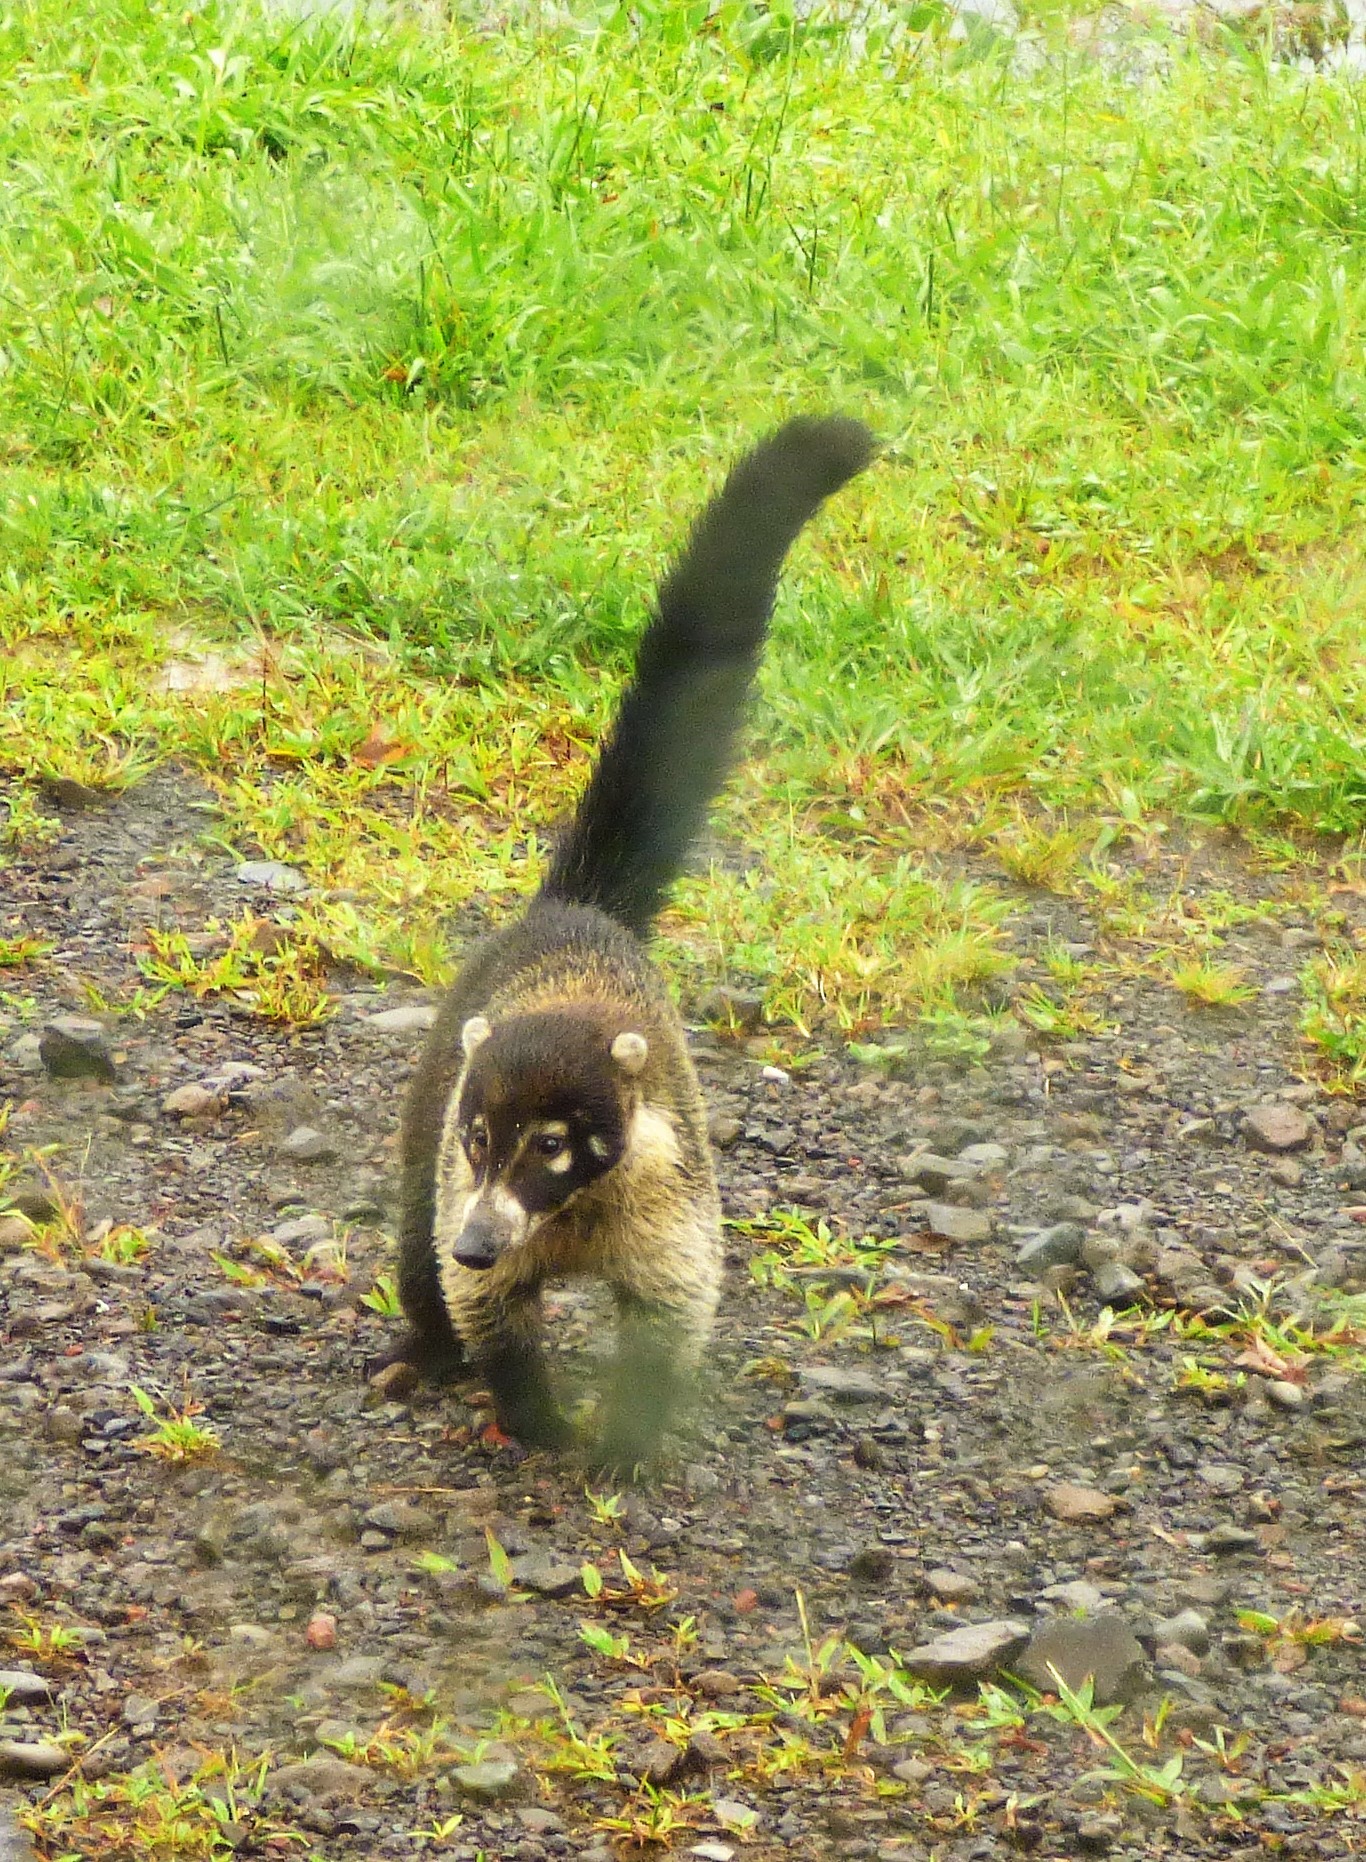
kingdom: Animalia
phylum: Chordata
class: Mammalia
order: Carnivora
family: Procyonidae
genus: Nasua
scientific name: Nasua narica
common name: White-nosed coati
